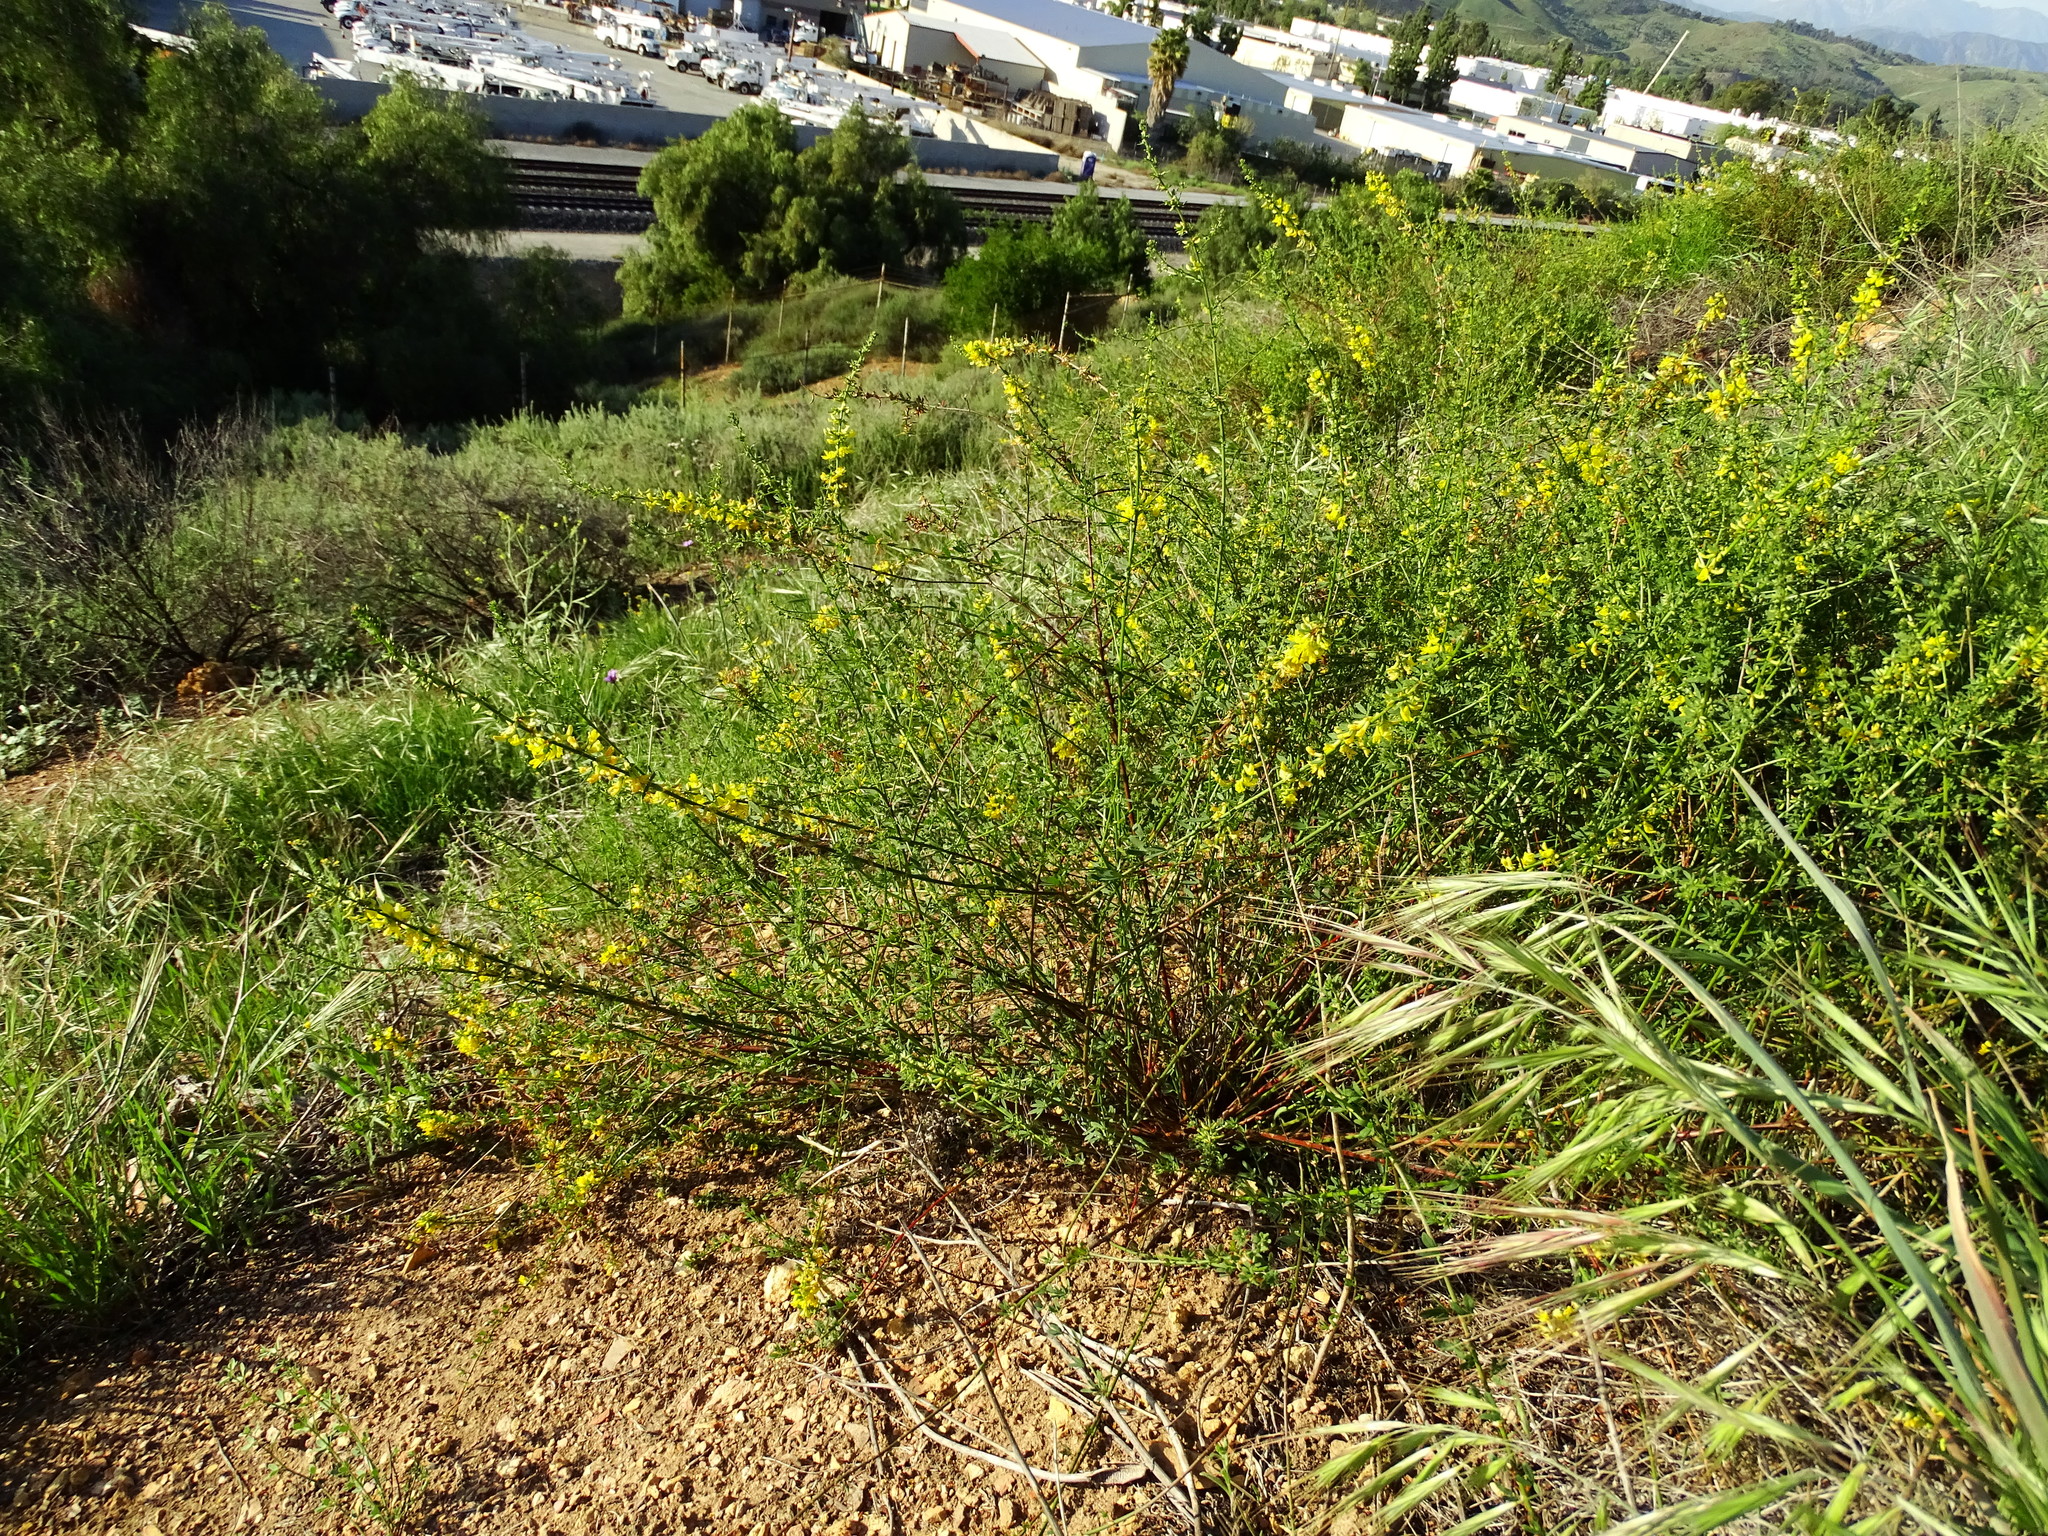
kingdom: Plantae
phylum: Tracheophyta
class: Magnoliopsida
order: Fabales
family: Fabaceae
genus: Acmispon
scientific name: Acmispon glaber
